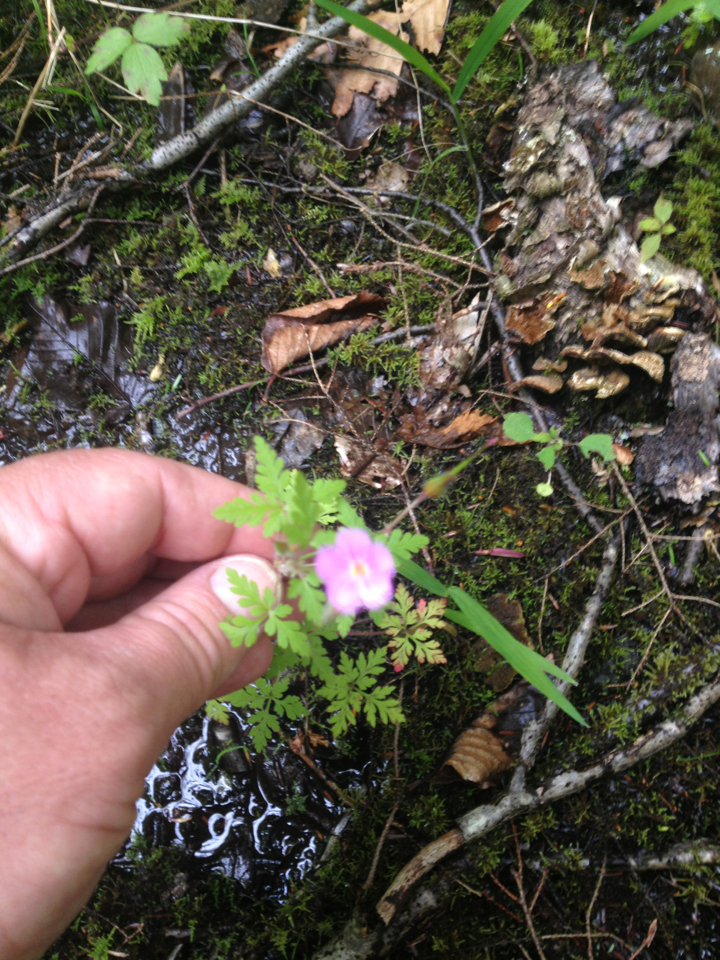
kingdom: Plantae
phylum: Tracheophyta
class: Magnoliopsida
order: Geraniales
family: Geraniaceae
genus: Geranium
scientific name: Geranium robertianum
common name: Herb-robert
